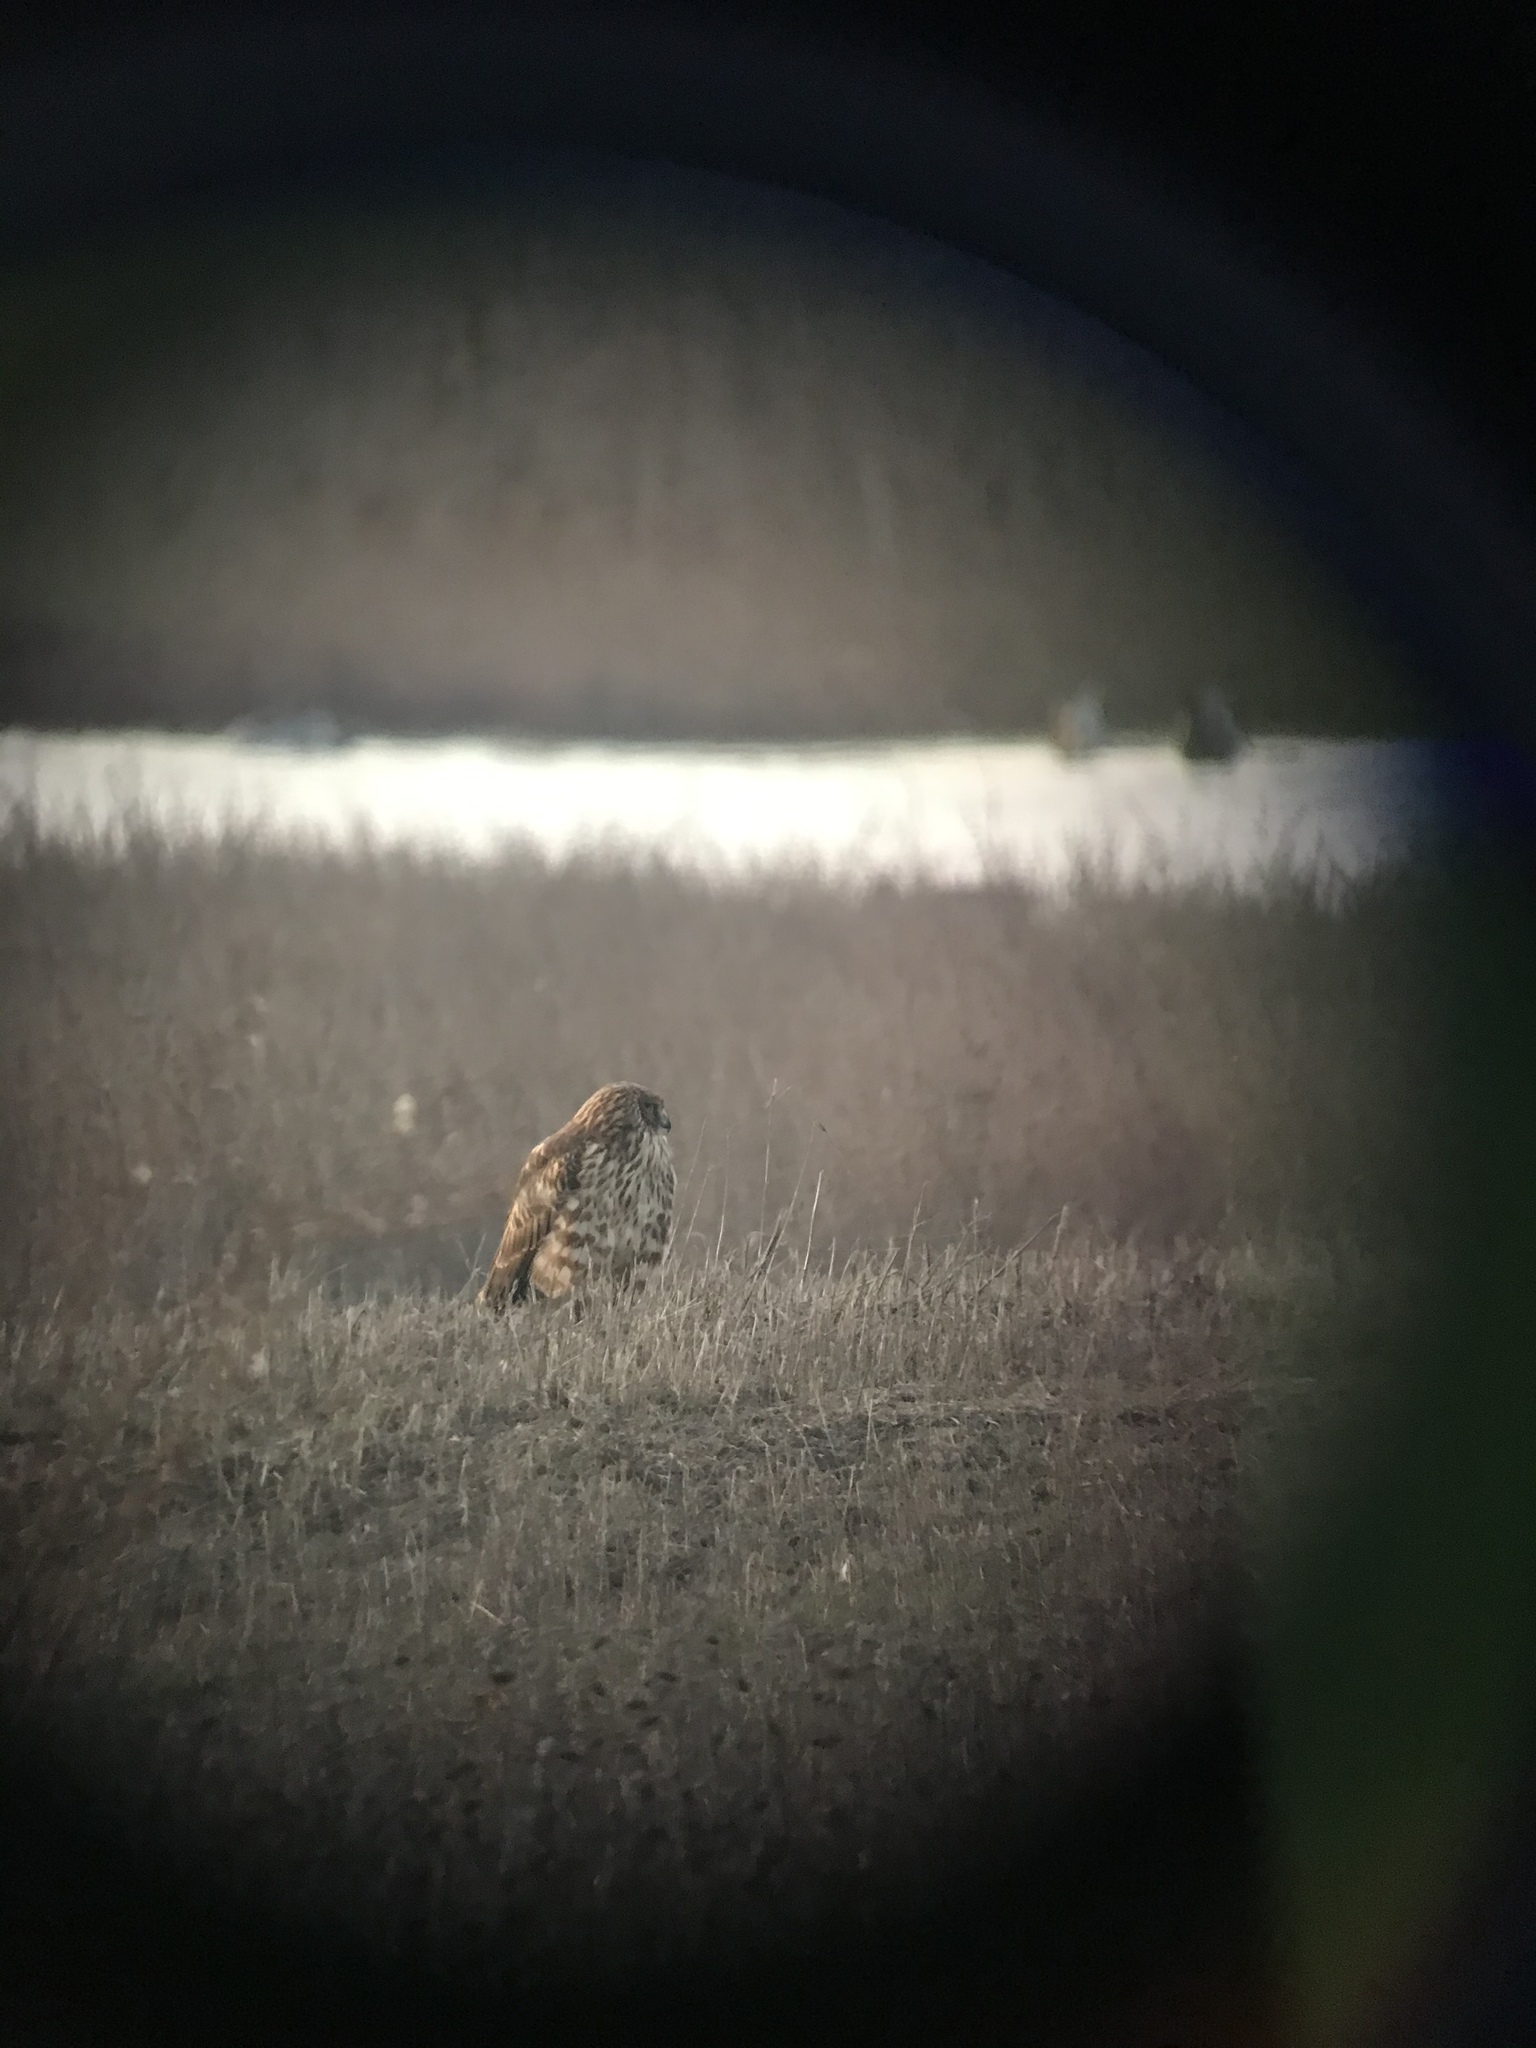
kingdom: Animalia
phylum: Chordata
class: Aves
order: Accipitriformes
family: Accipitridae
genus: Circus
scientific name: Circus cyaneus
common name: Hen harrier
